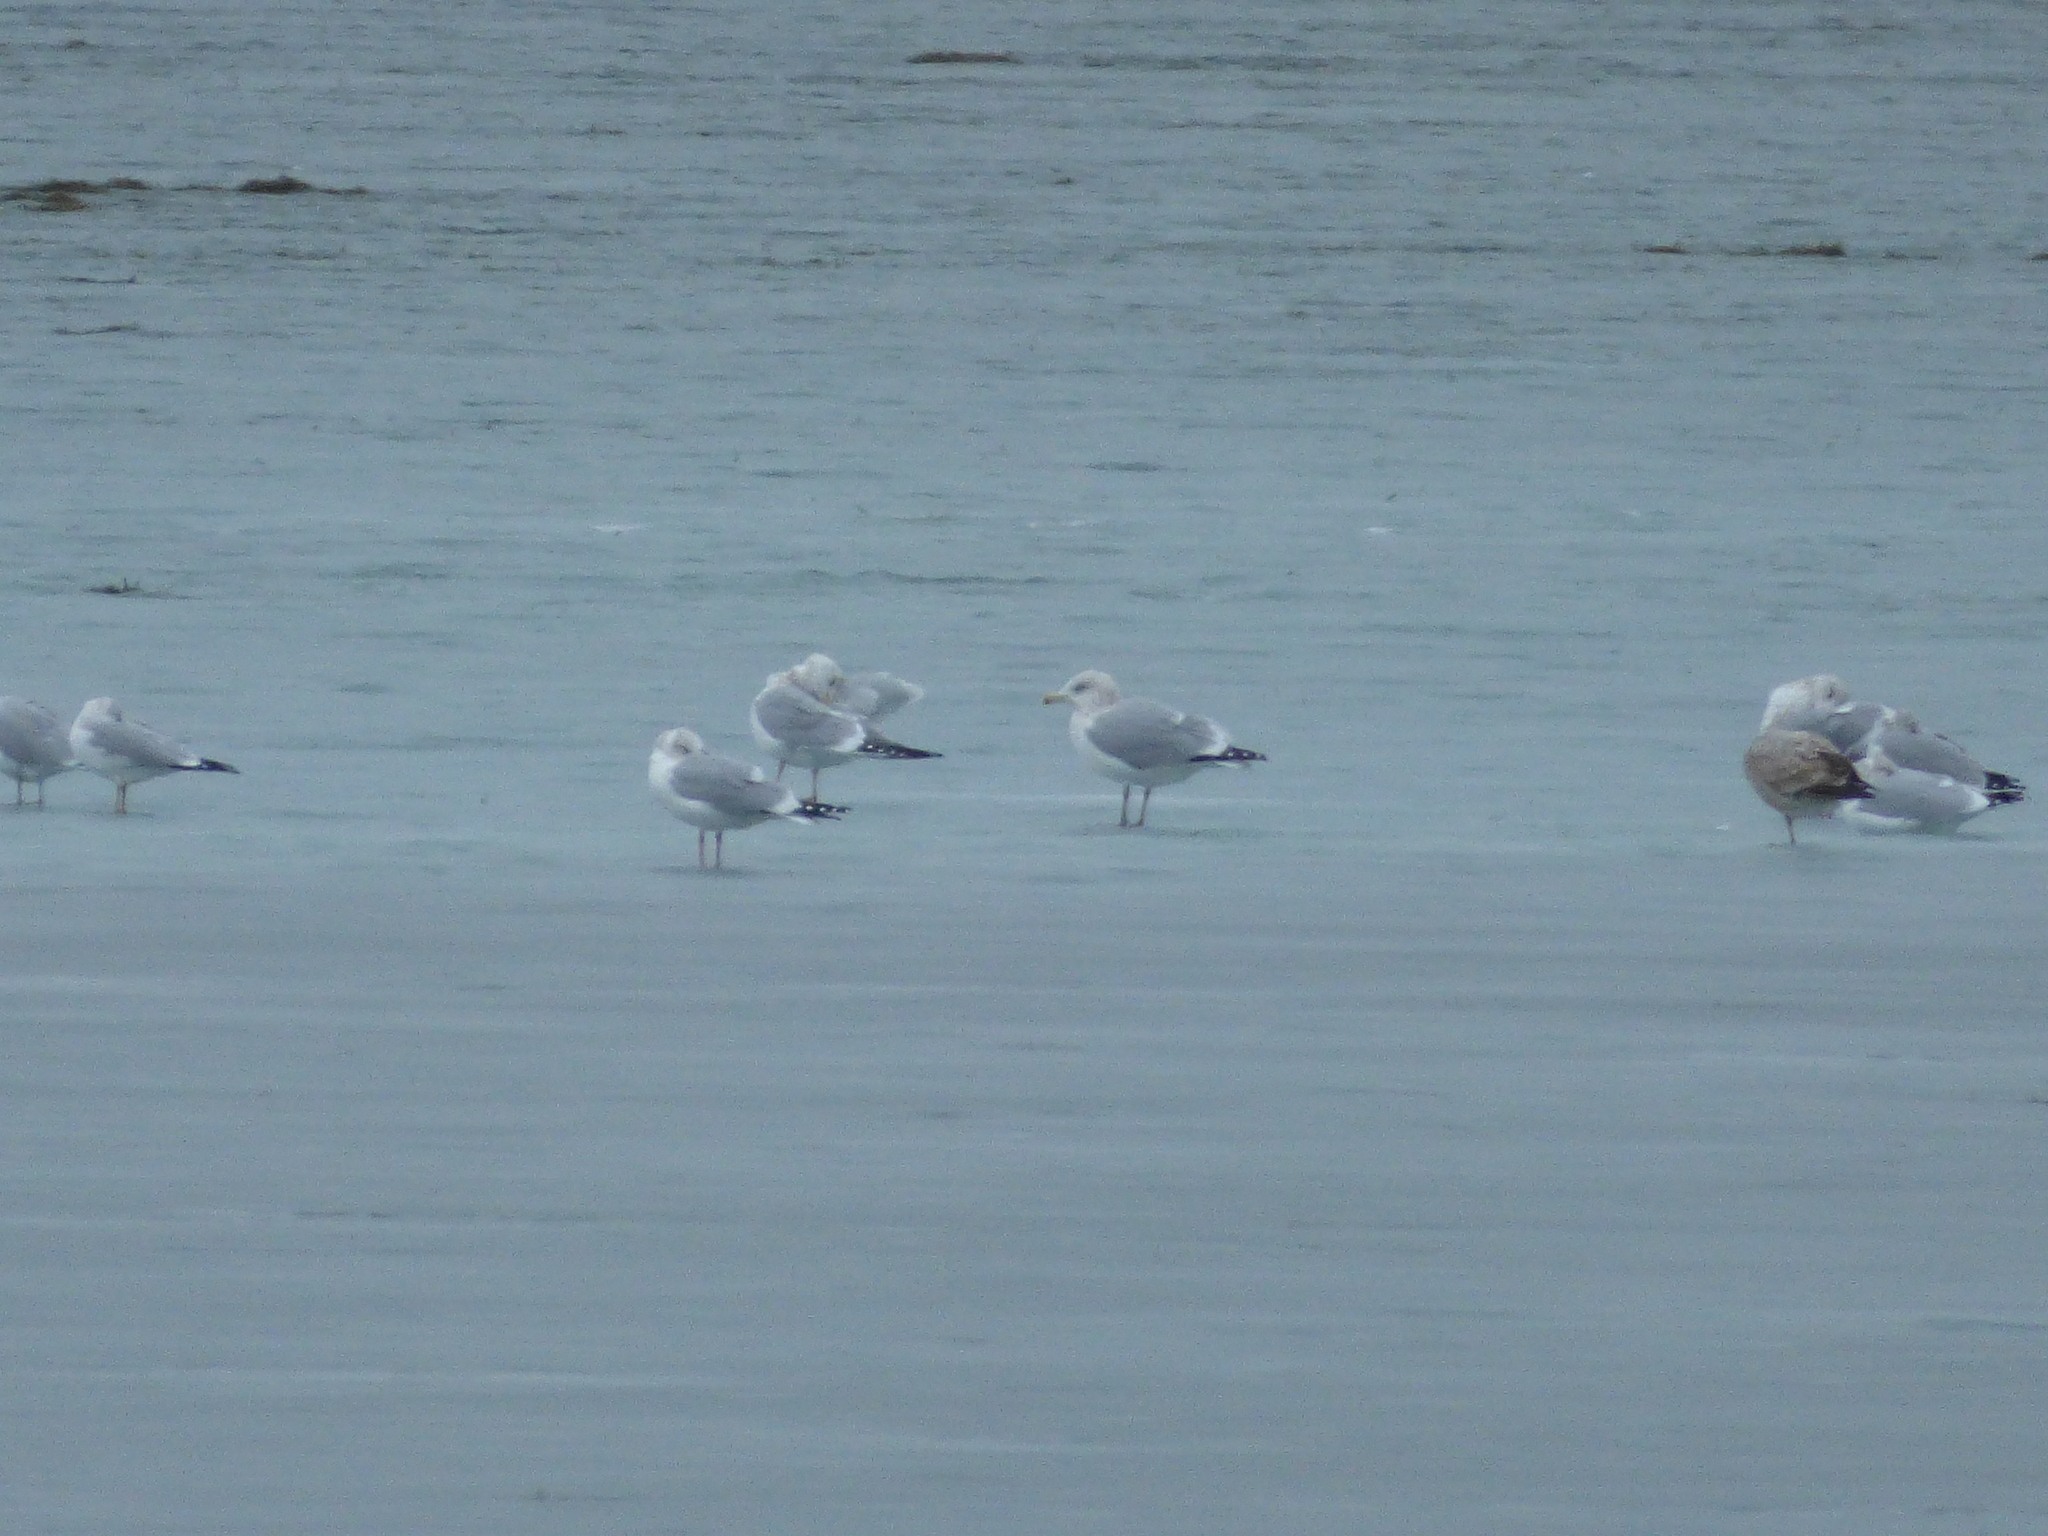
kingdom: Animalia
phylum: Chordata
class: Aves
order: Charadriiformes
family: Laridae
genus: Larus
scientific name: Larus delawarensis
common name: Ring-billed gull
